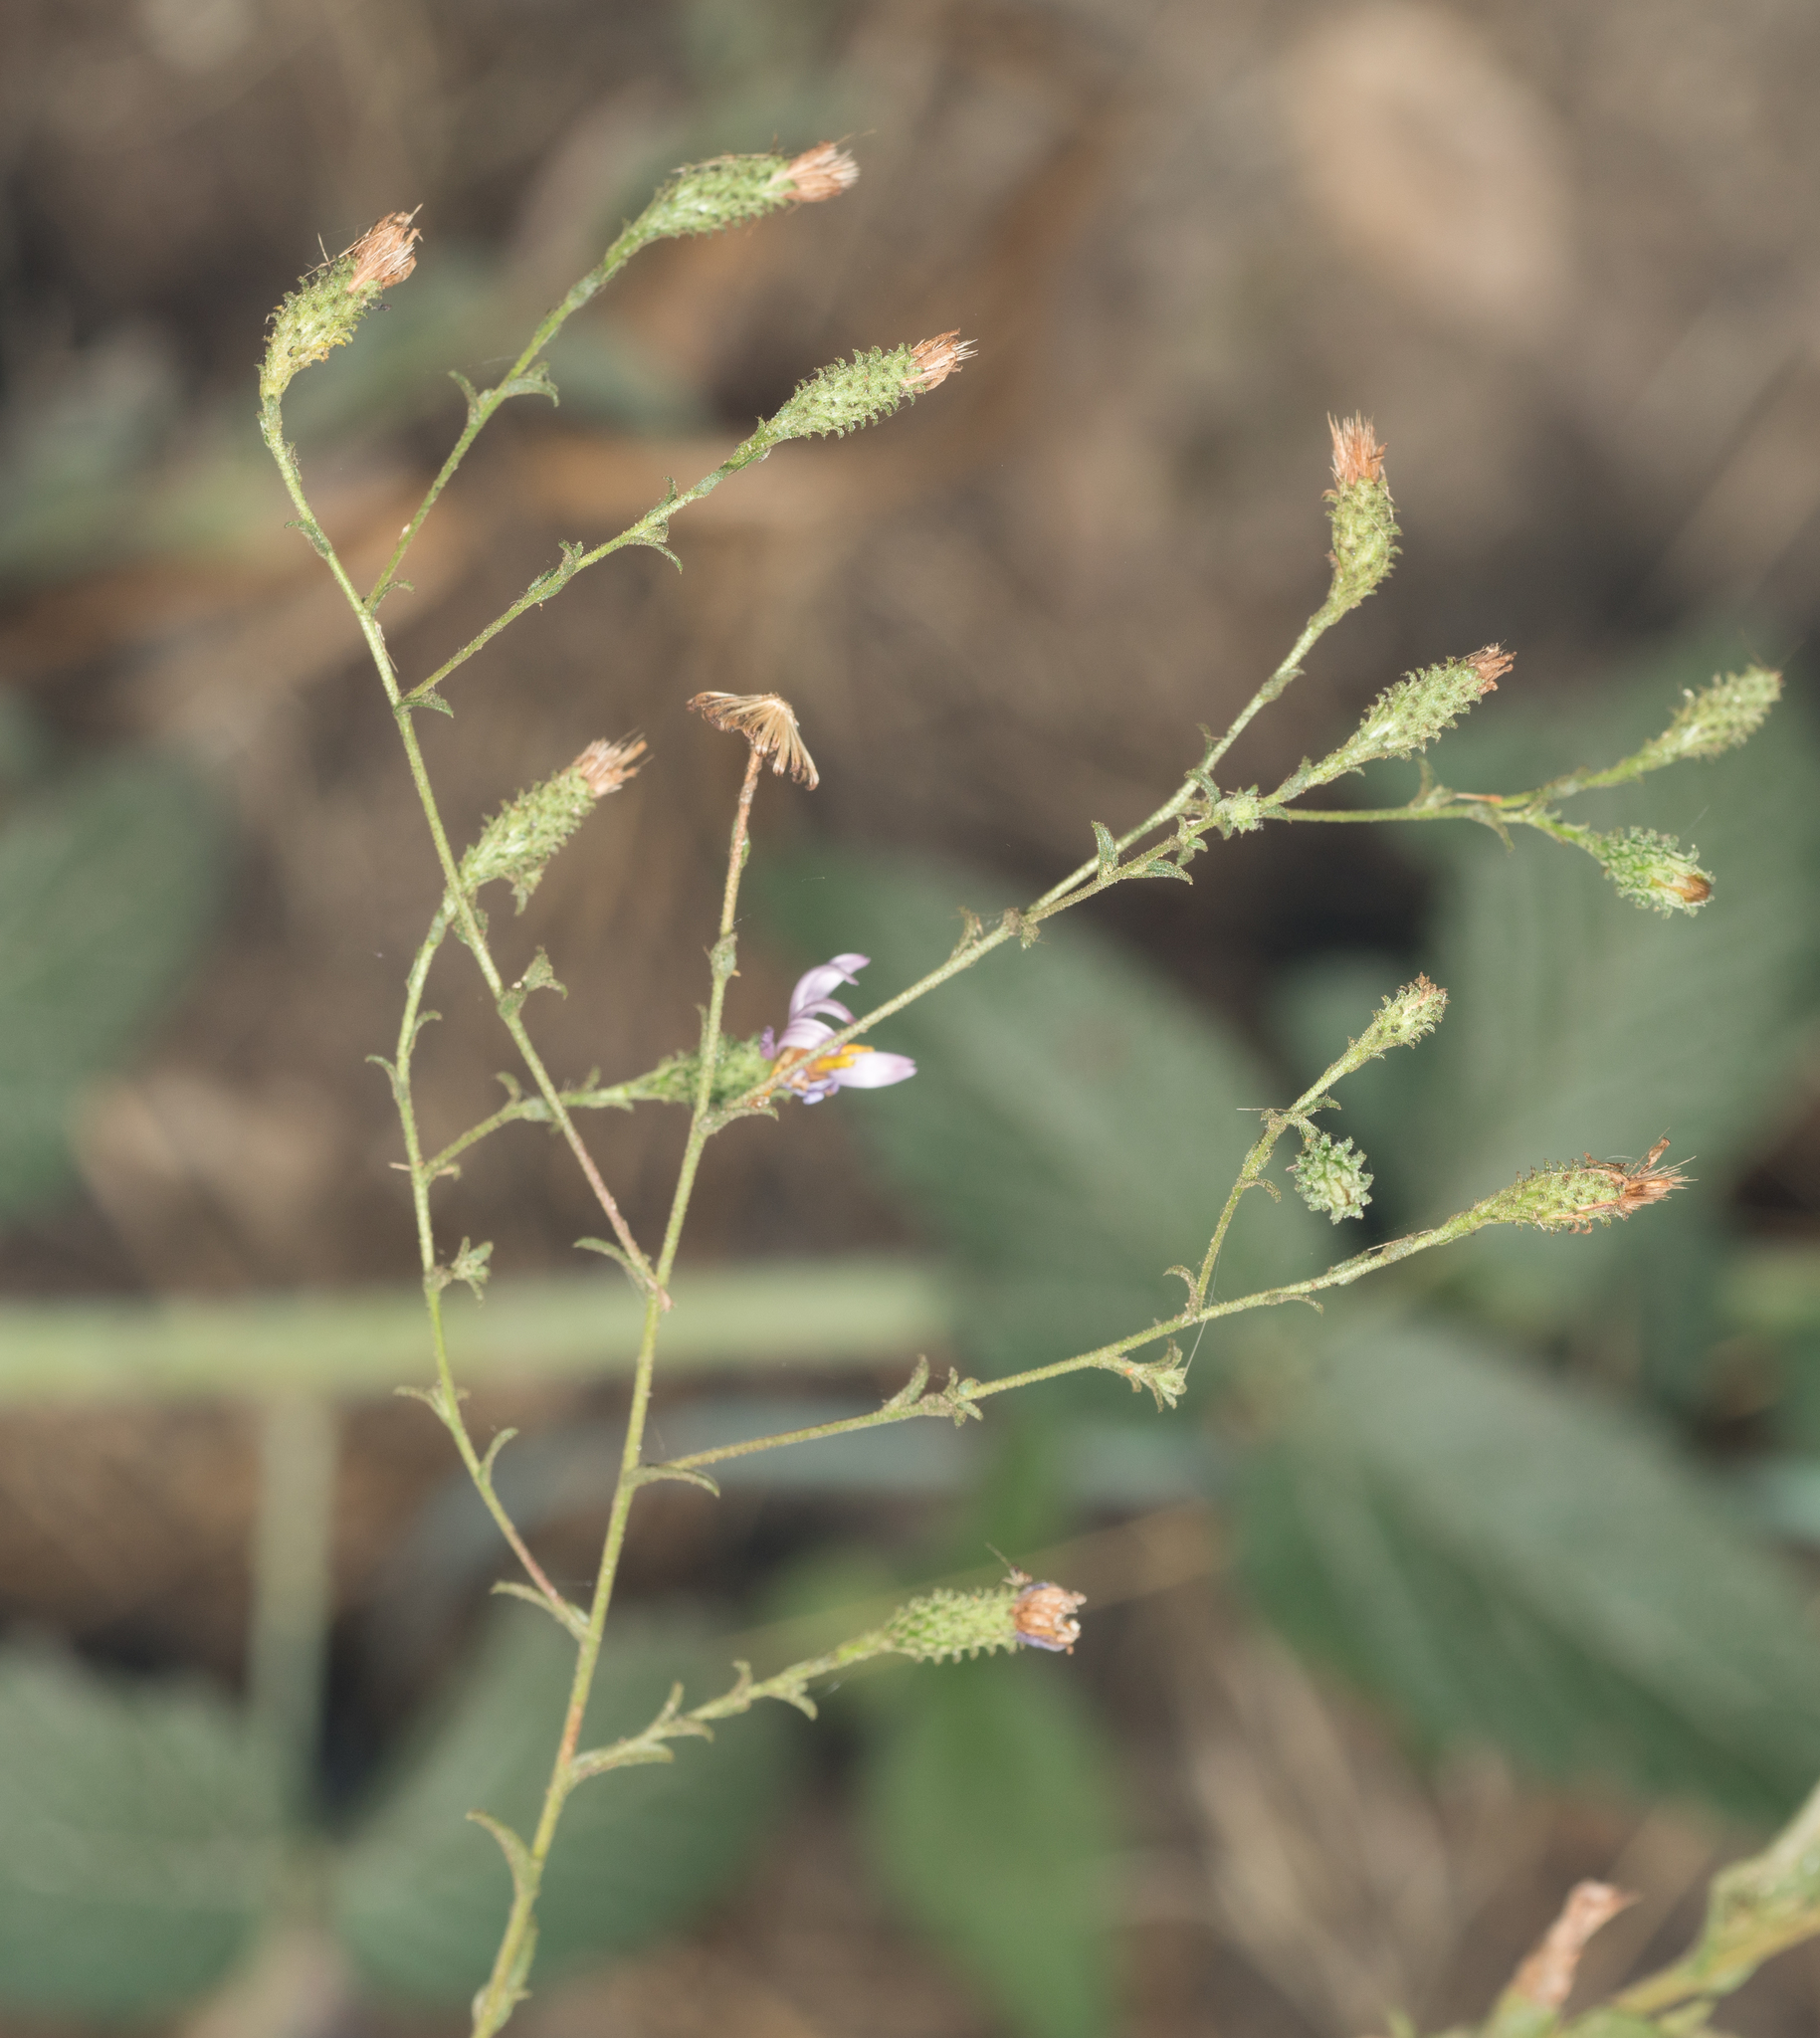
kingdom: Plantae
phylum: Tracheophyta
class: Magnoliopsida
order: Asterales
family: Asteraceae
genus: Corethrogyne
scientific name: Corethrogyne filaginifolia
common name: Sand-aster
